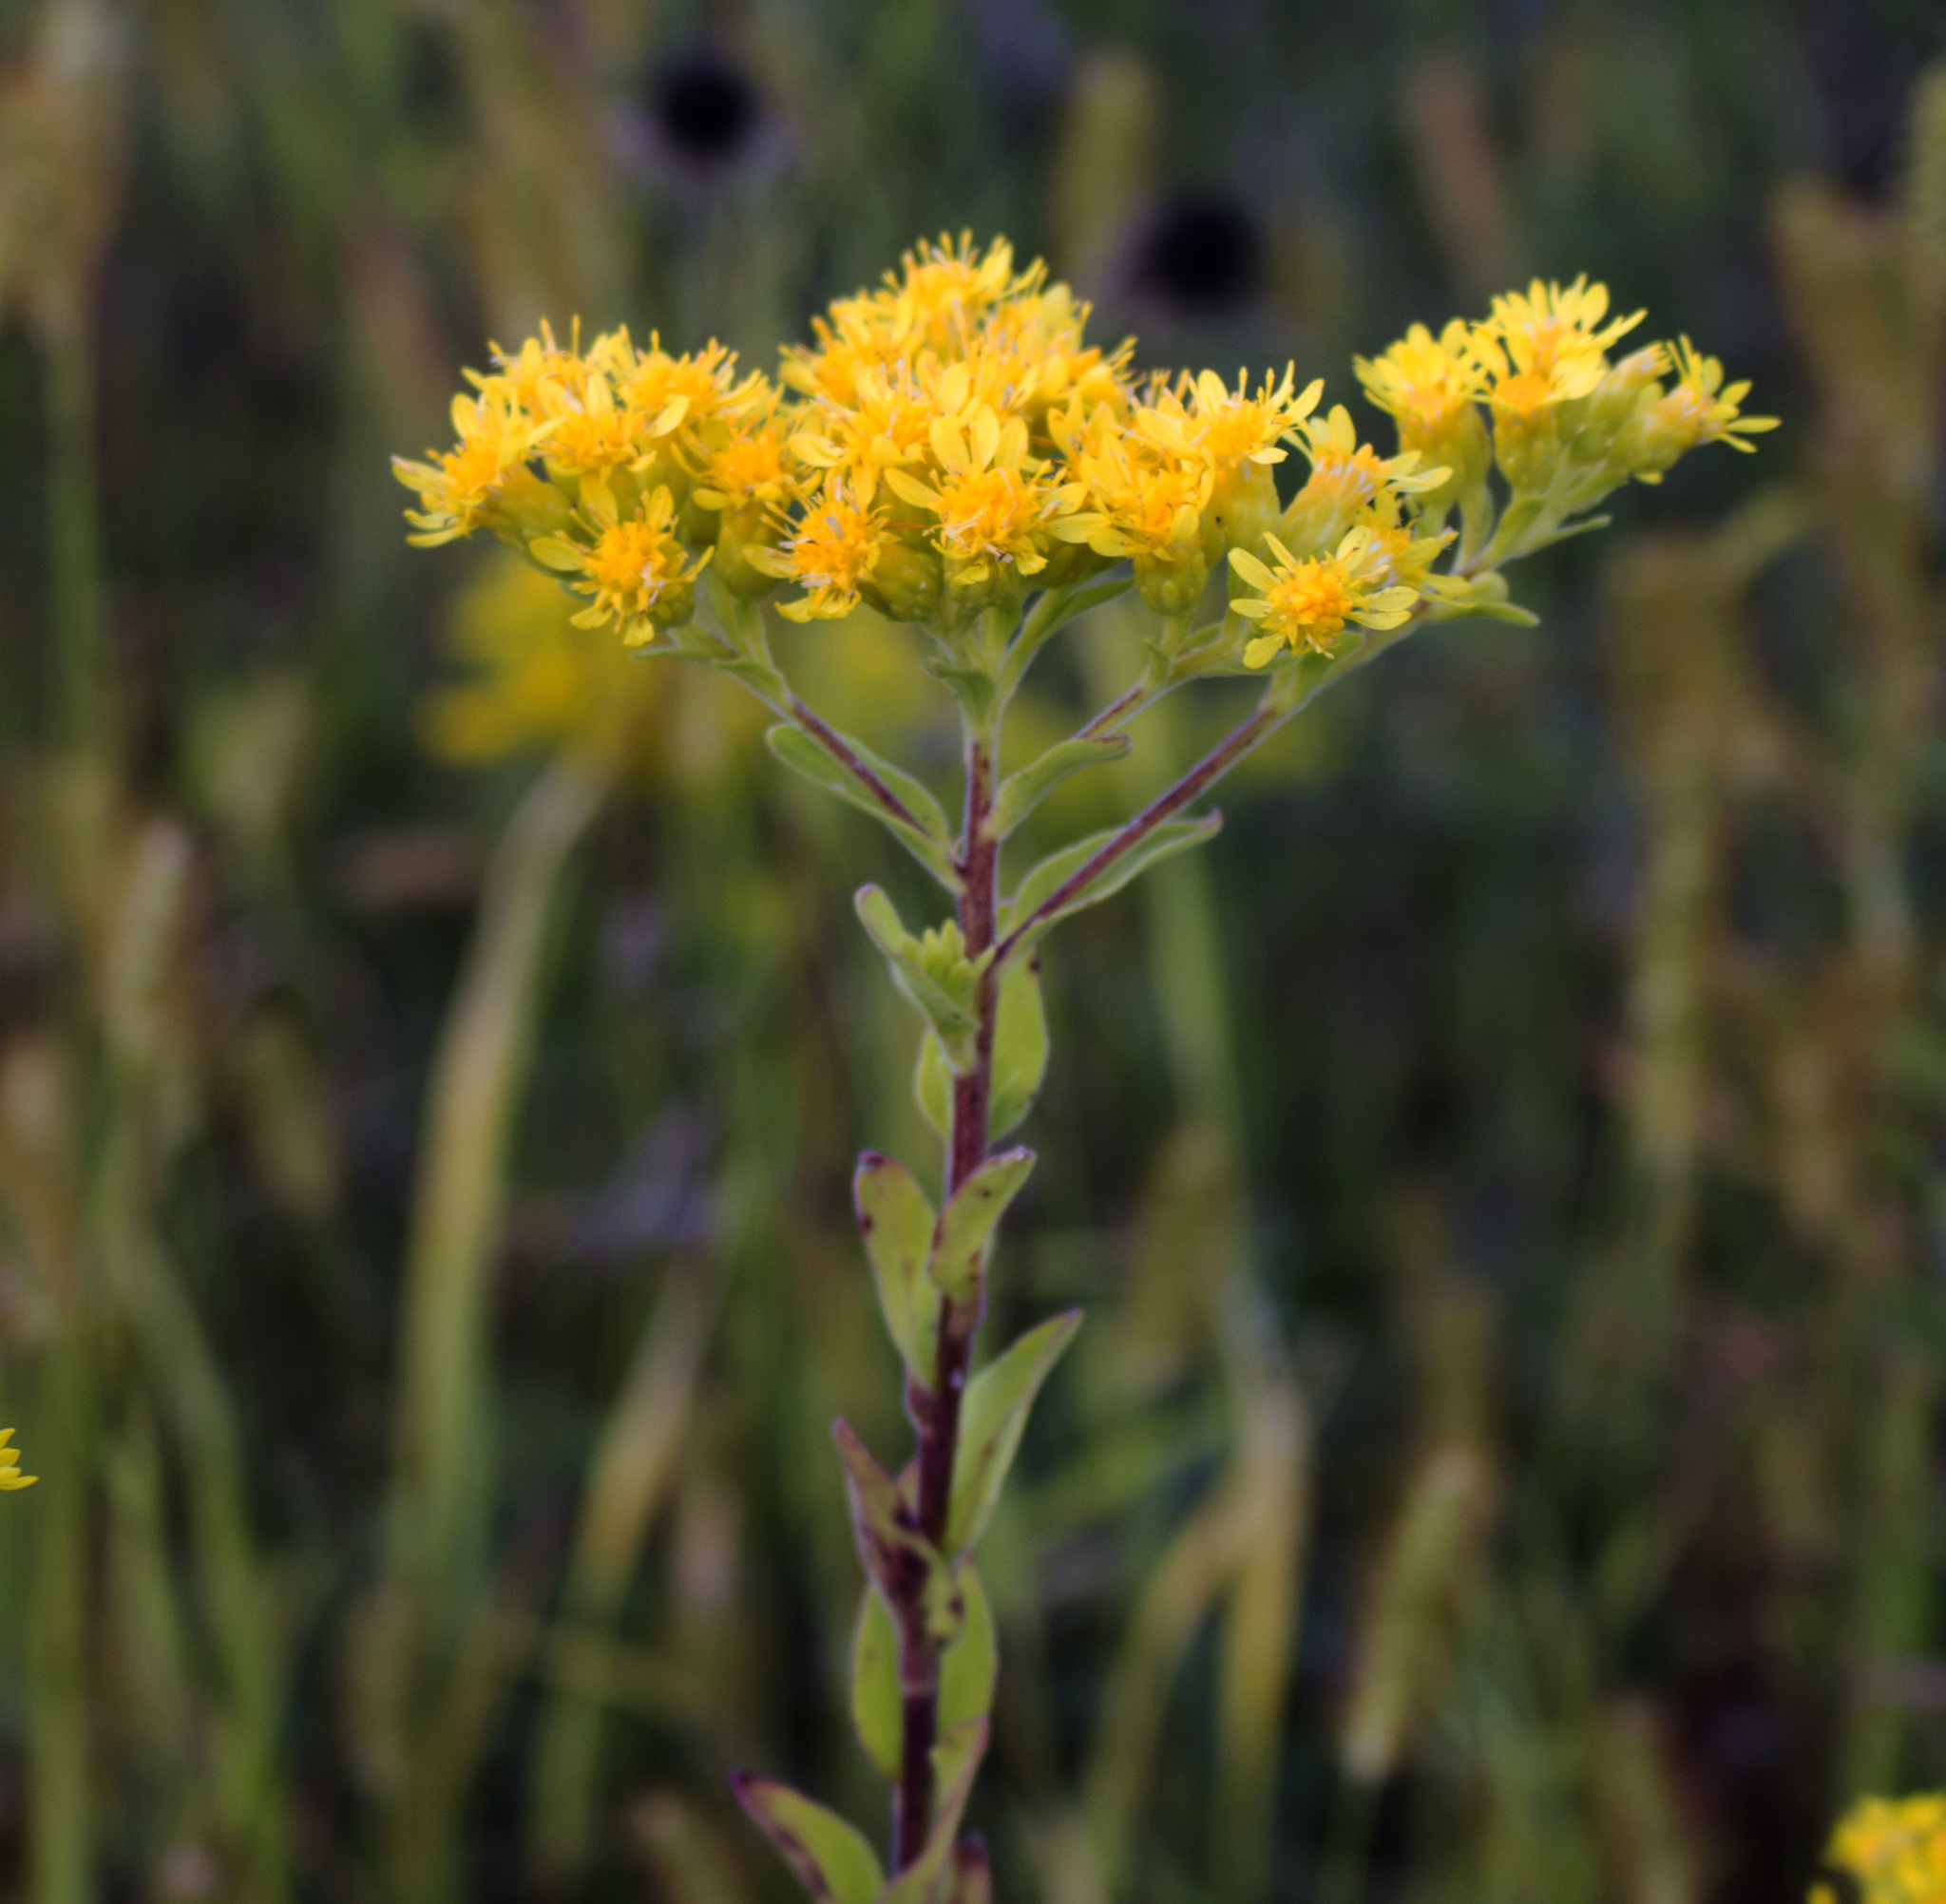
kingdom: Plantae
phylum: Tracheophyta
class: Magnoliopsida
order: Asterales
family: Asteraceae
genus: Solidago
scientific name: Solidago rigida
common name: Rigid goldenrod
